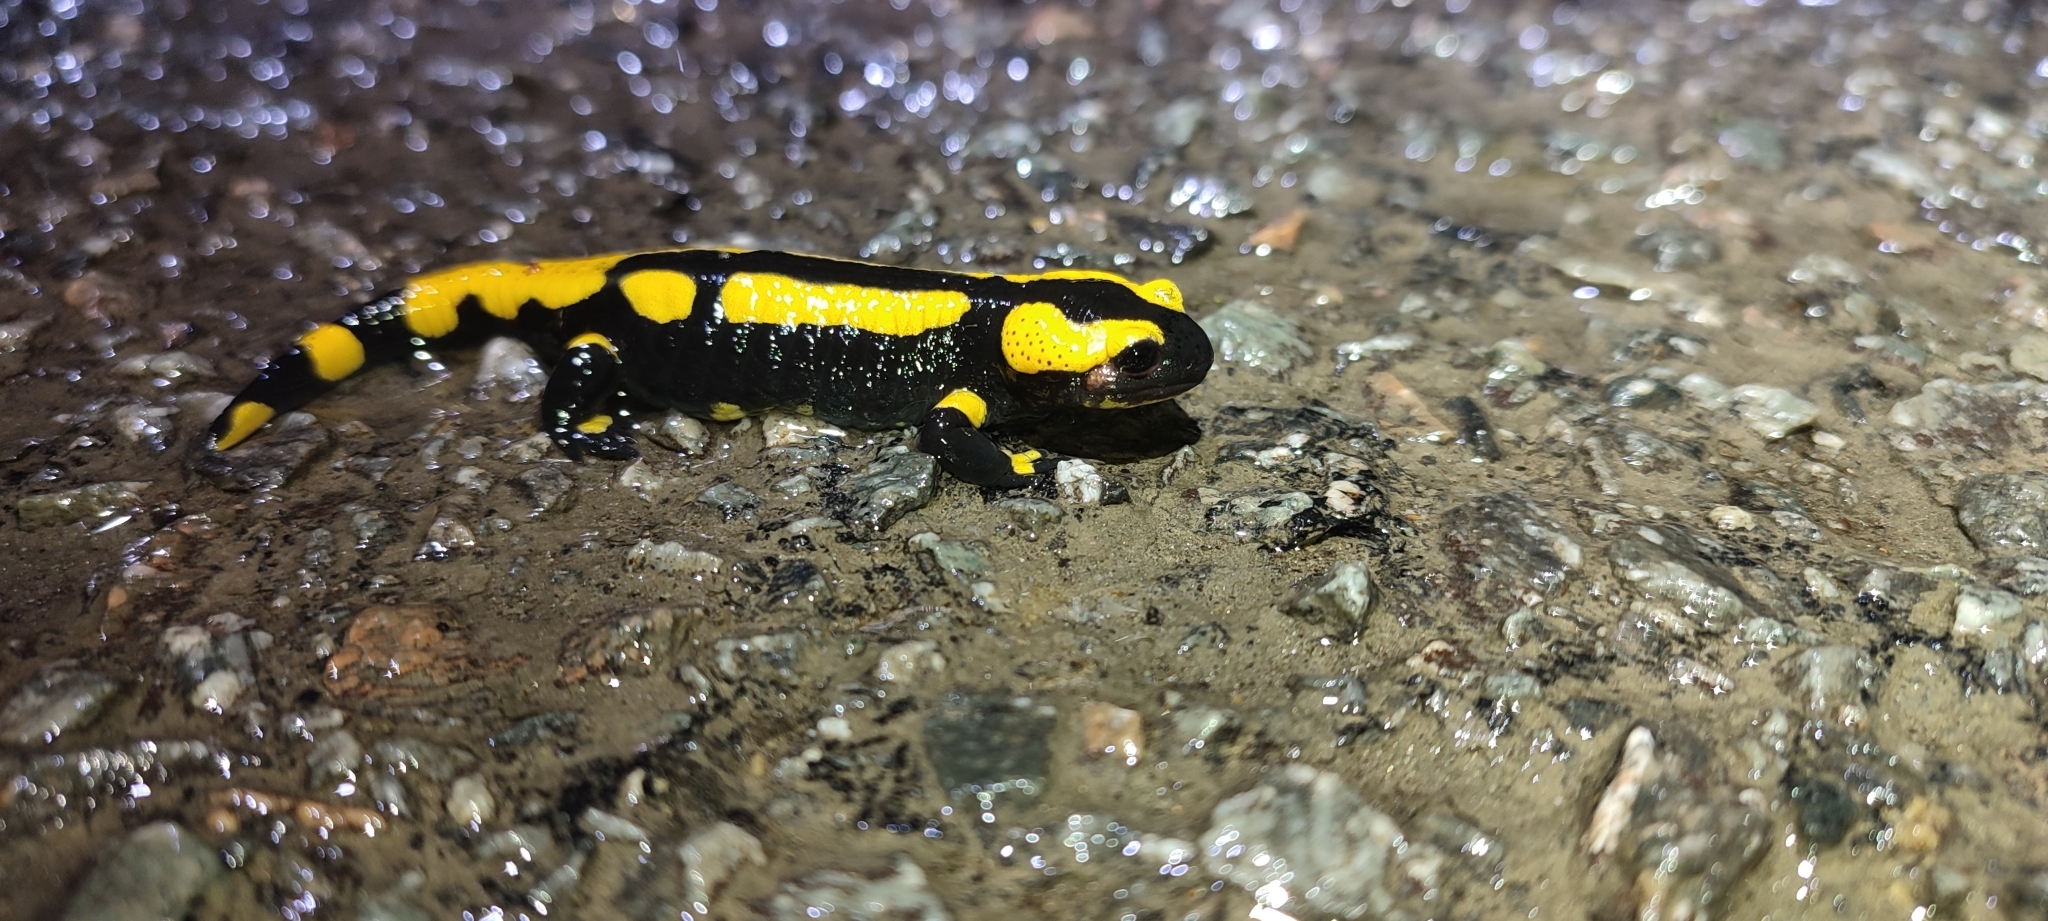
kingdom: Animalia
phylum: Chordata
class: Amphibia
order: Caudata
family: Salamandridae
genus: Salamandra
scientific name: Salamandra salamandra
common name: Fire salamander
